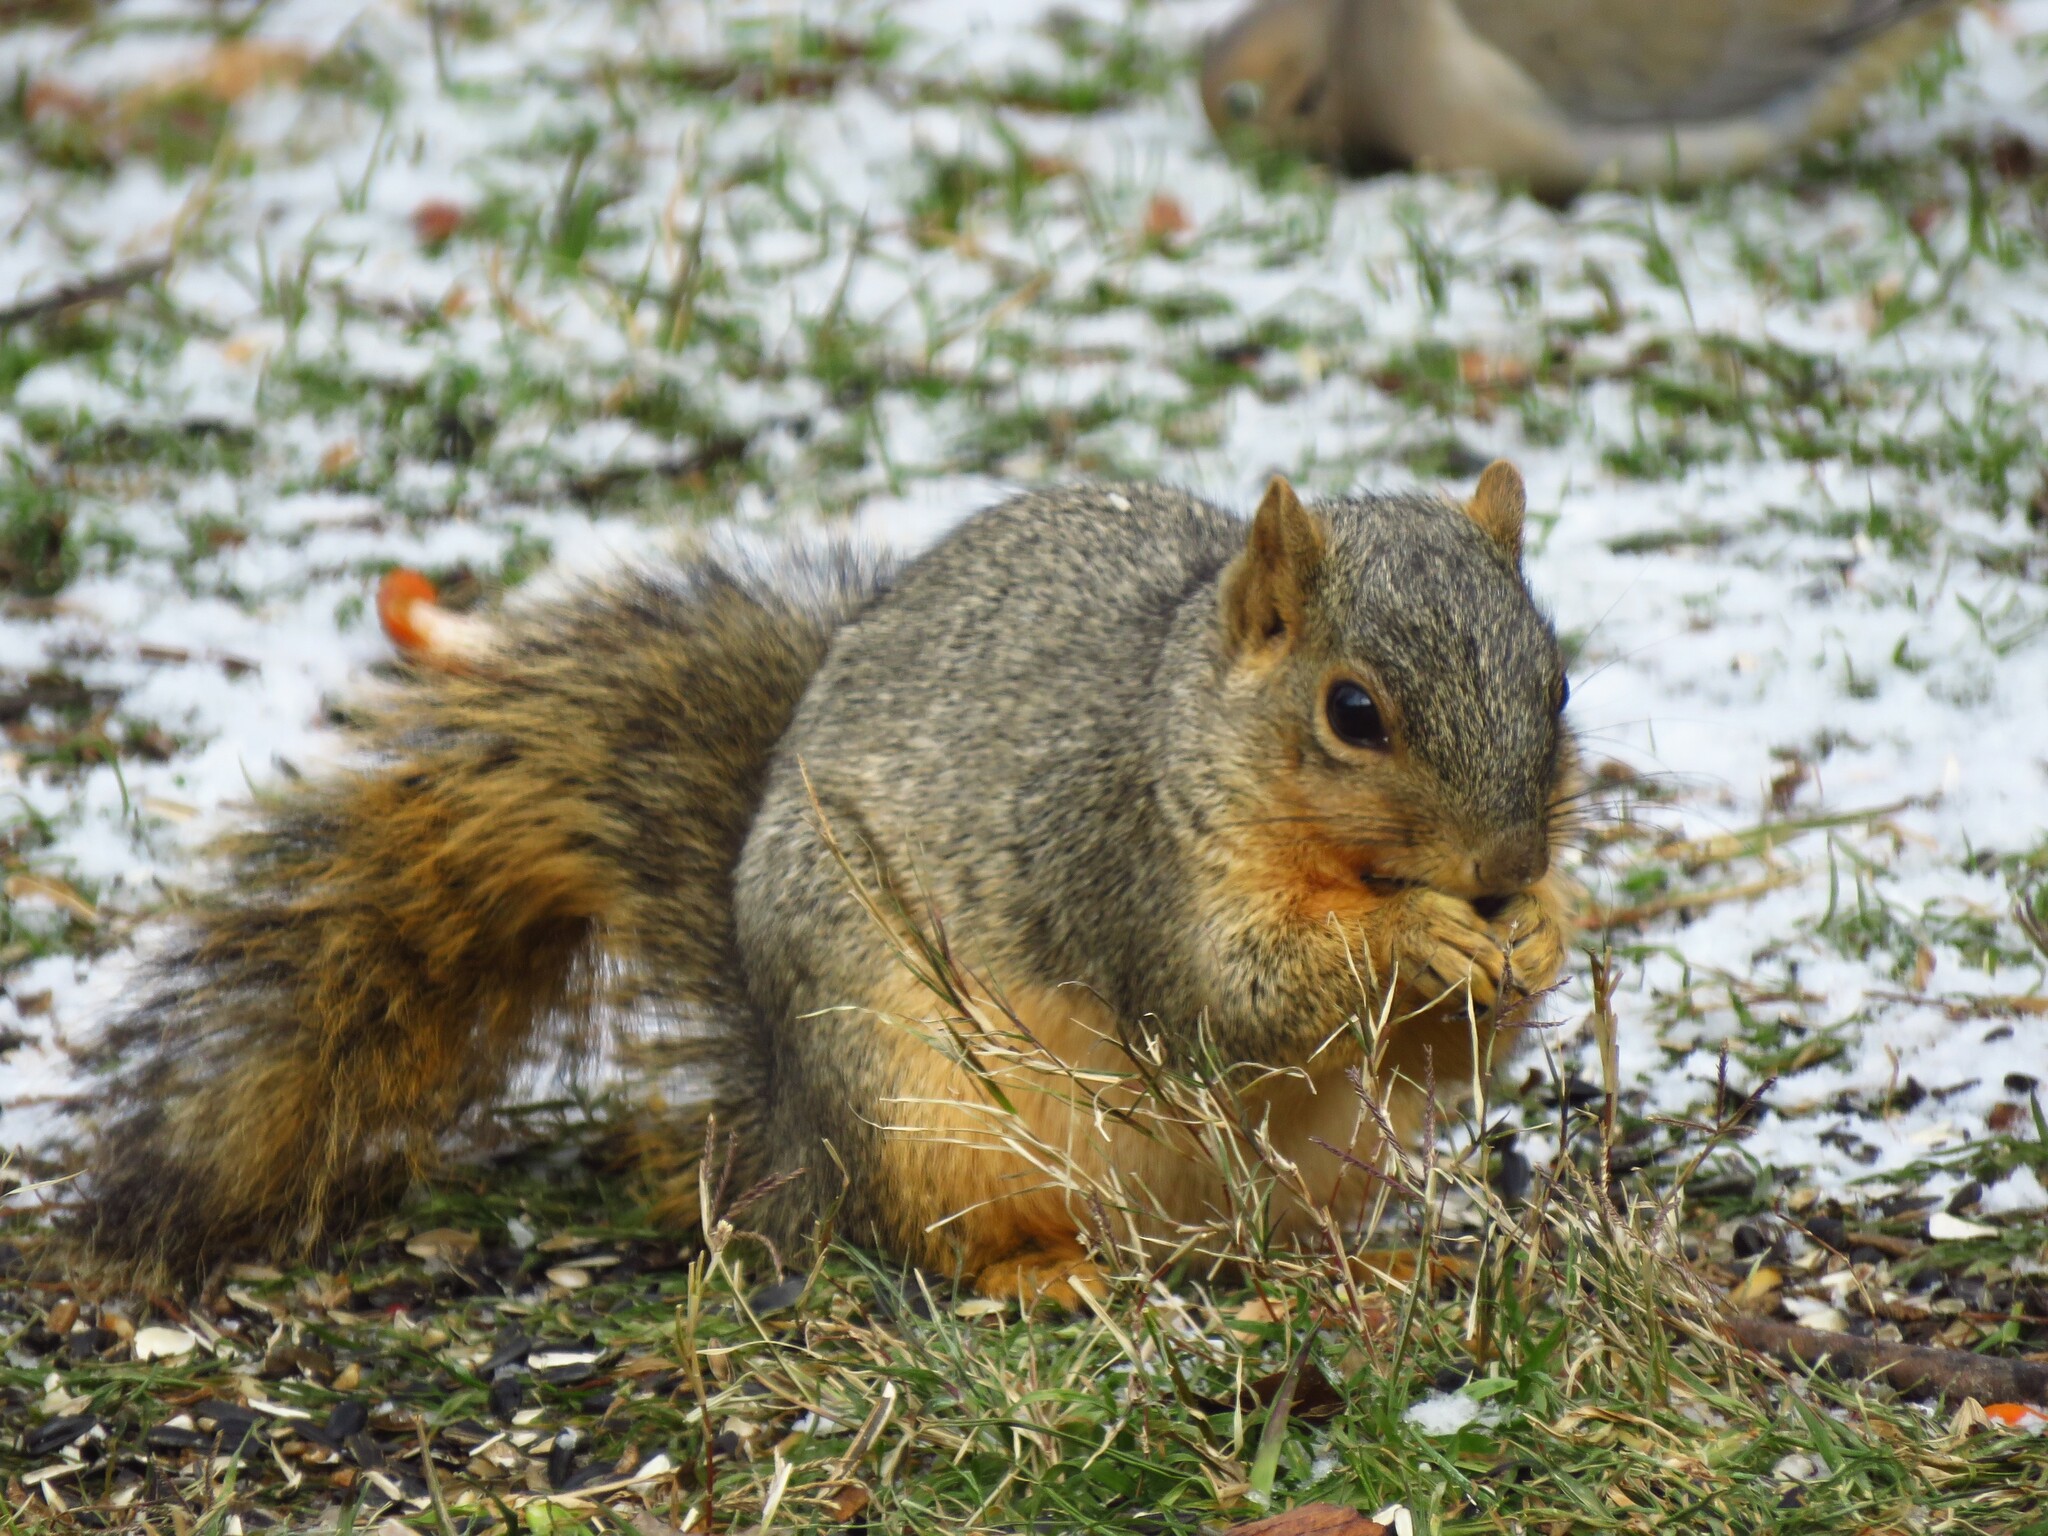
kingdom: Animalia
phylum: Chordata
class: Mammalia
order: Rodentia
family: Sciuridae
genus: Sciurus
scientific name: Sciurus niger
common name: Fox squirrel
